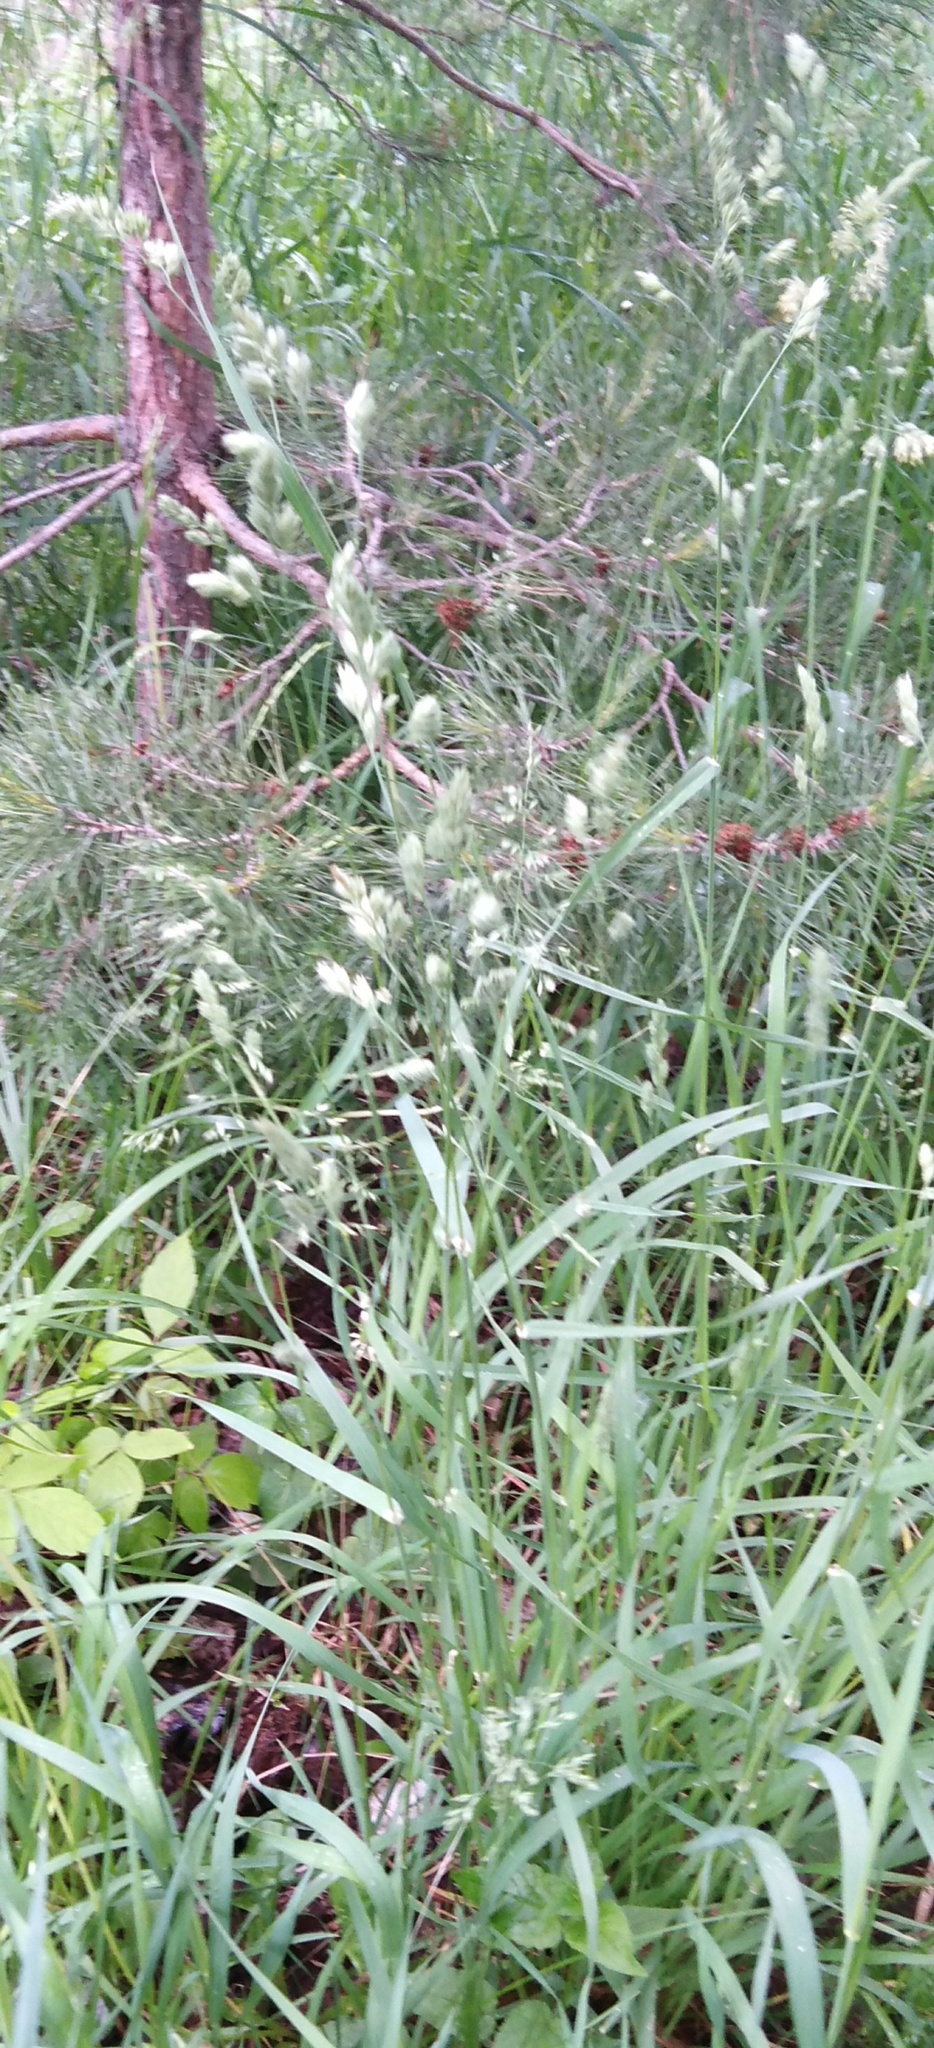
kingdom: Plantae
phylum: Tracheophyta
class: Liliopsida
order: Poales
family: Poaceae
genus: Dactylis
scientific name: Dactylis glomerata
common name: Orchardgrass
